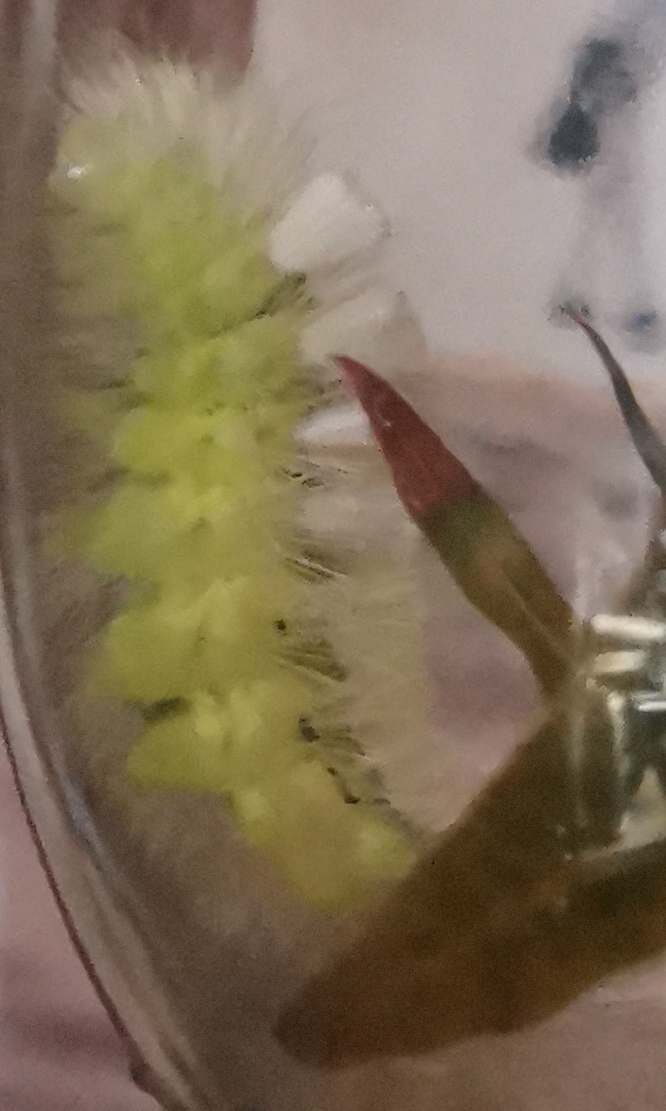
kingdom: Animalia
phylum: Arthropoda
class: Insecta
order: Lepidoptera
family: Erebidae
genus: Calliteara
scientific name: Calliteara pudibunda
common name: Pale tussock
